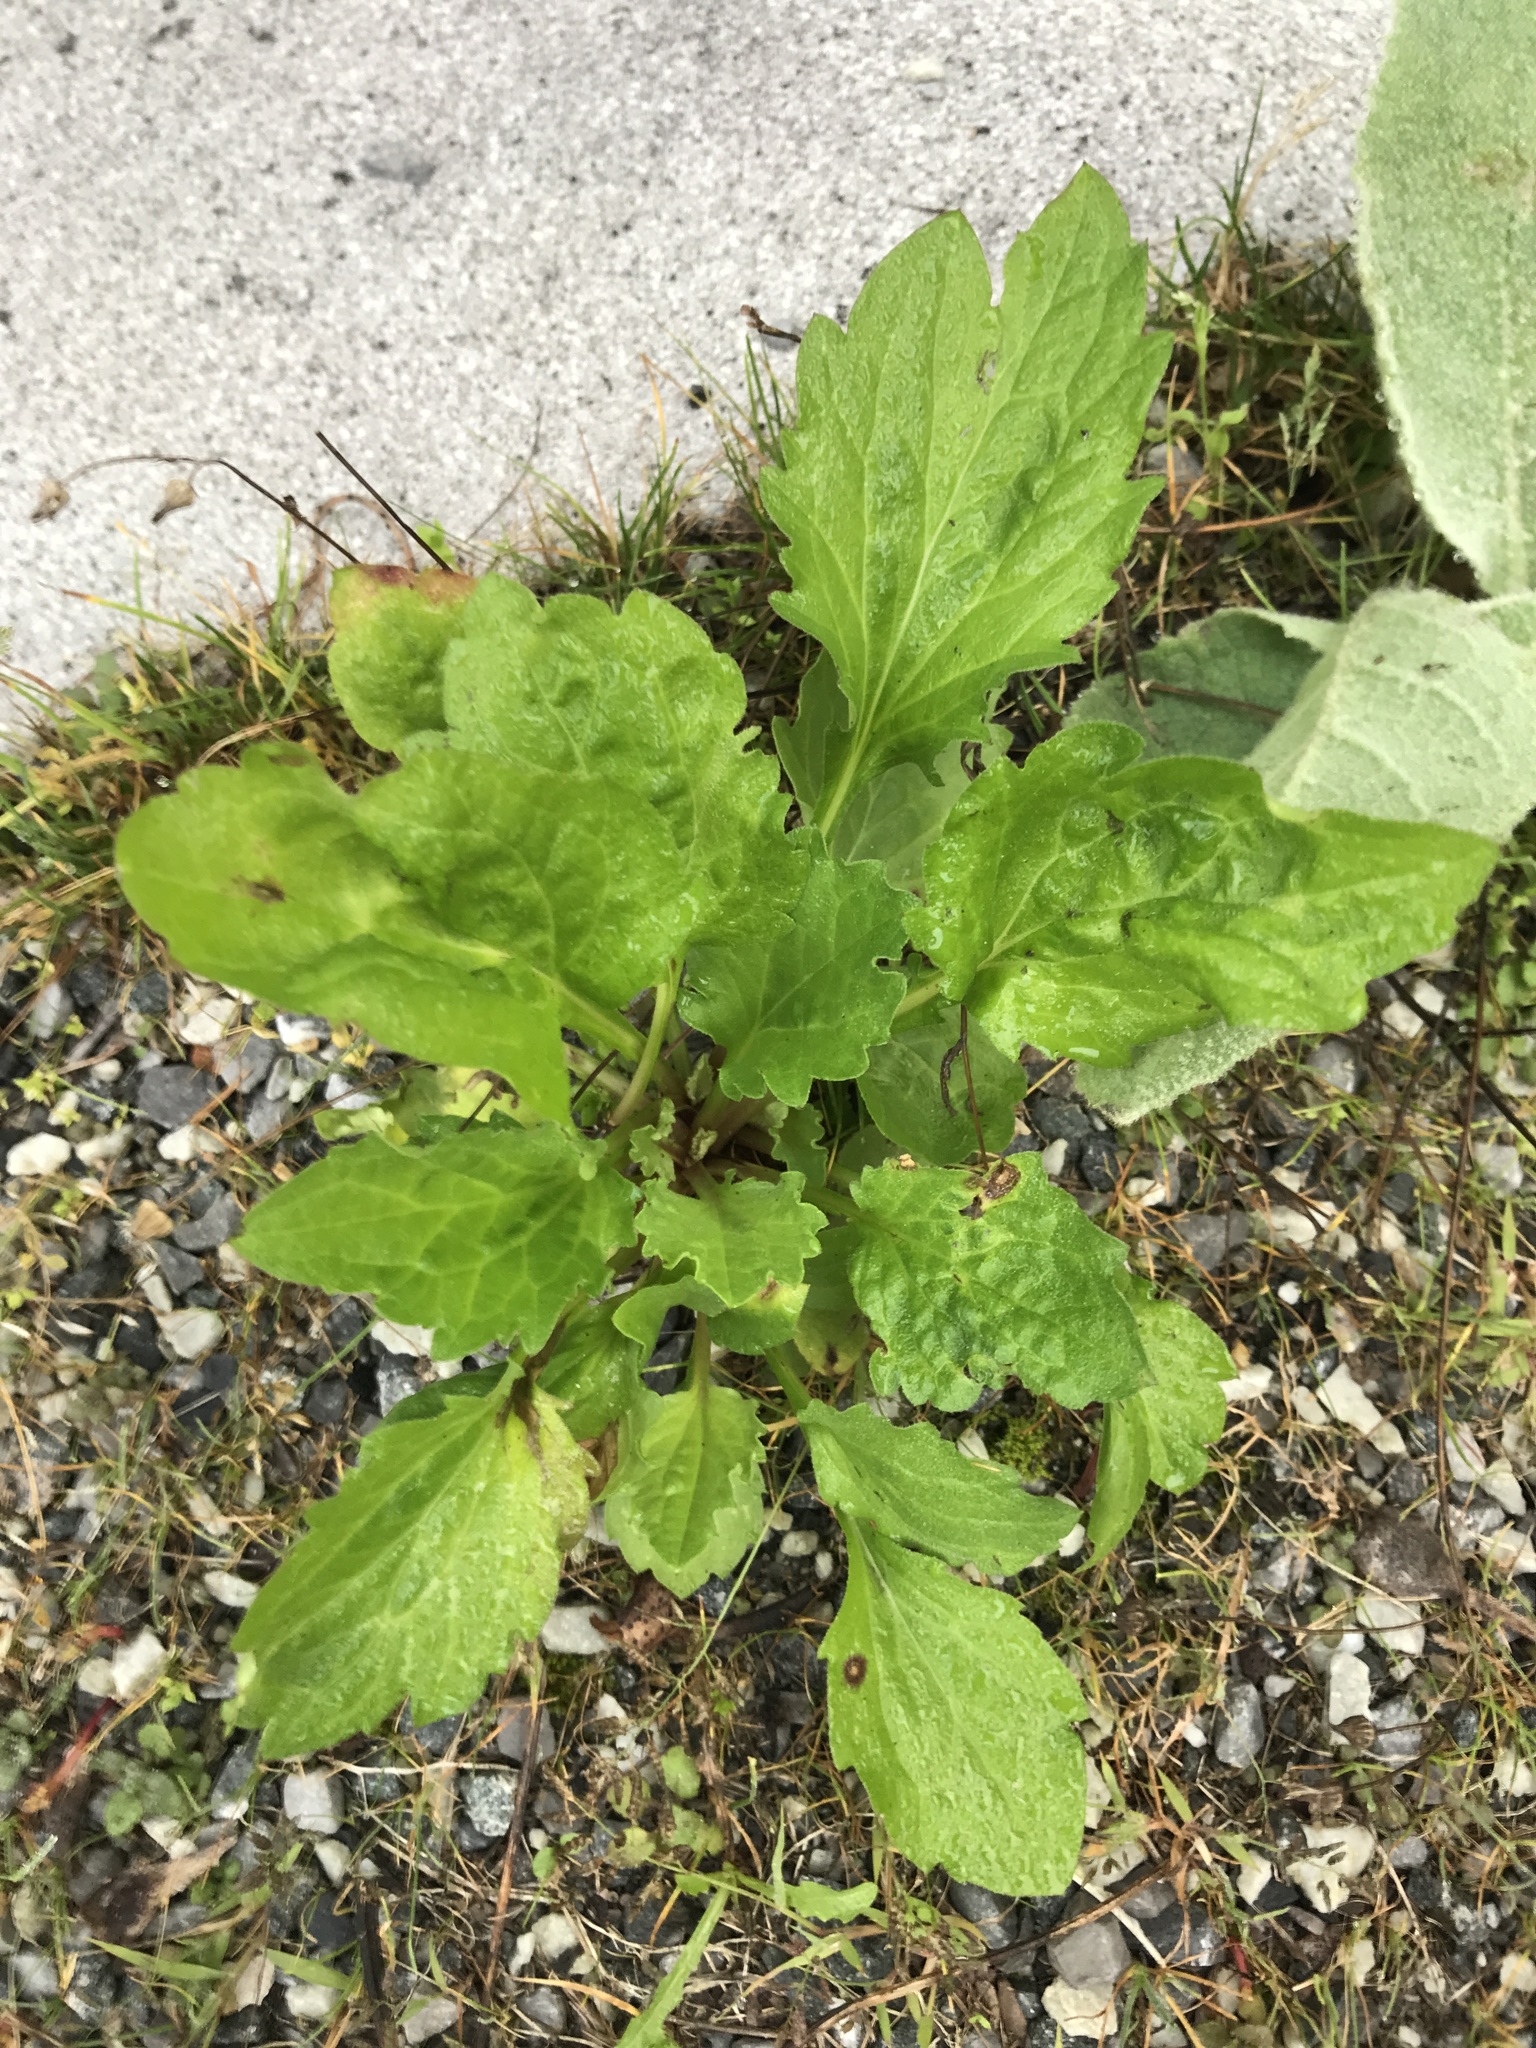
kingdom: Plantae
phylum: Tracheophyta
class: Magnoliopsida
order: Asterales
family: Asteraceae
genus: Erigeron
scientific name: Erigeron annuus
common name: Tall fleabane
